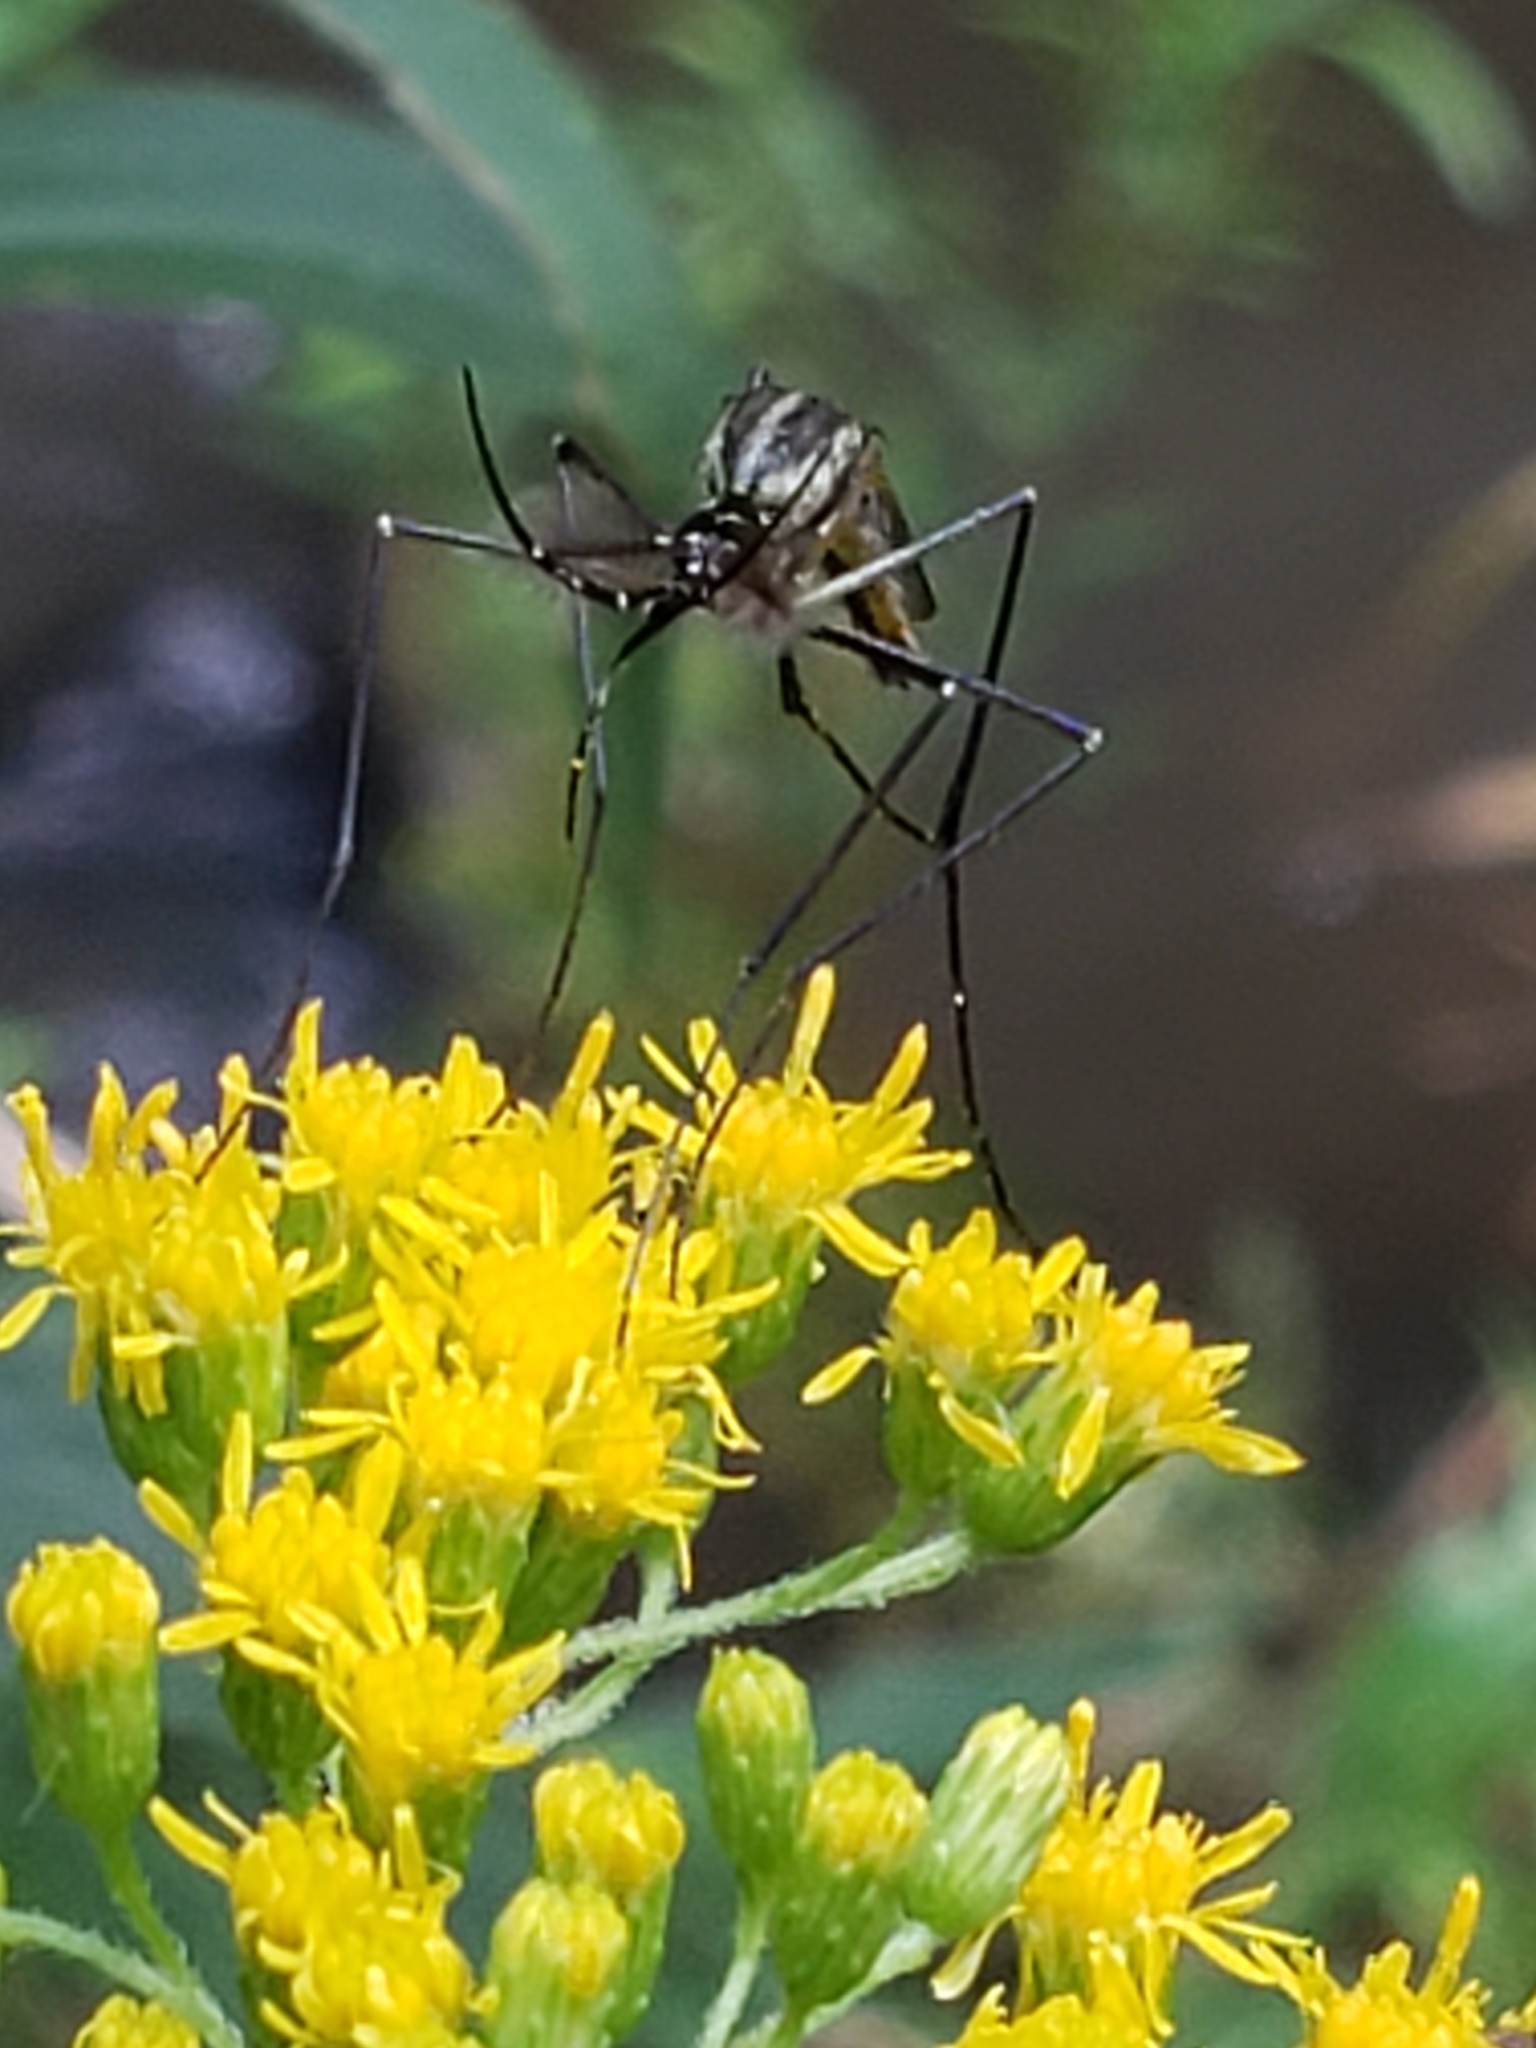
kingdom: Animalia
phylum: Arthropoda
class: Insecta
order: Diptera
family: Culicidae
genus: Toxorhynchites
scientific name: Toxorhynchites rutilus
